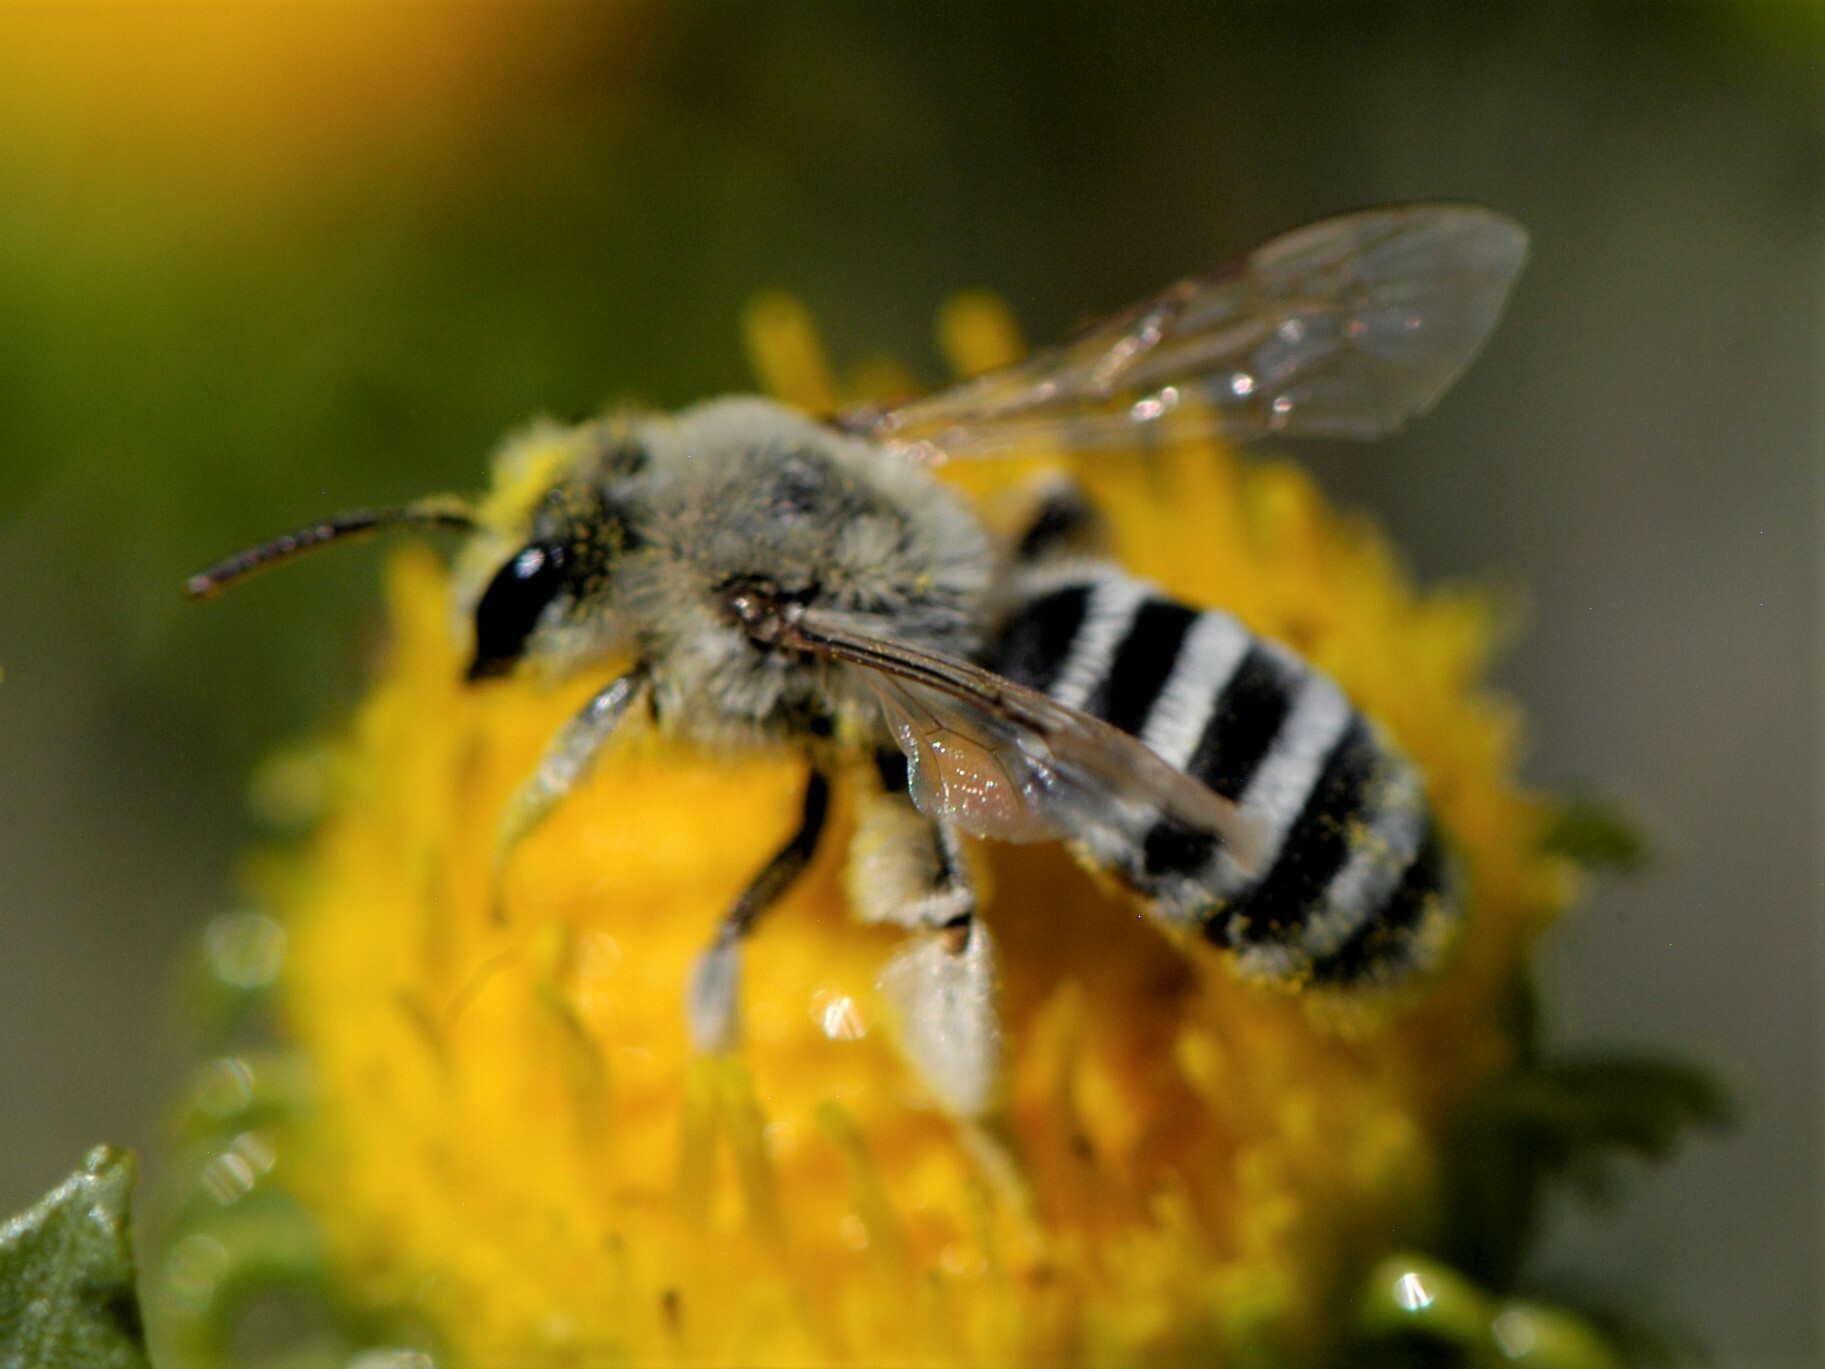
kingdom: Animalia
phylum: Arthropoda
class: Insecta
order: Hymenoptera
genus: Cnemidandrena
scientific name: Cnemidandrena
